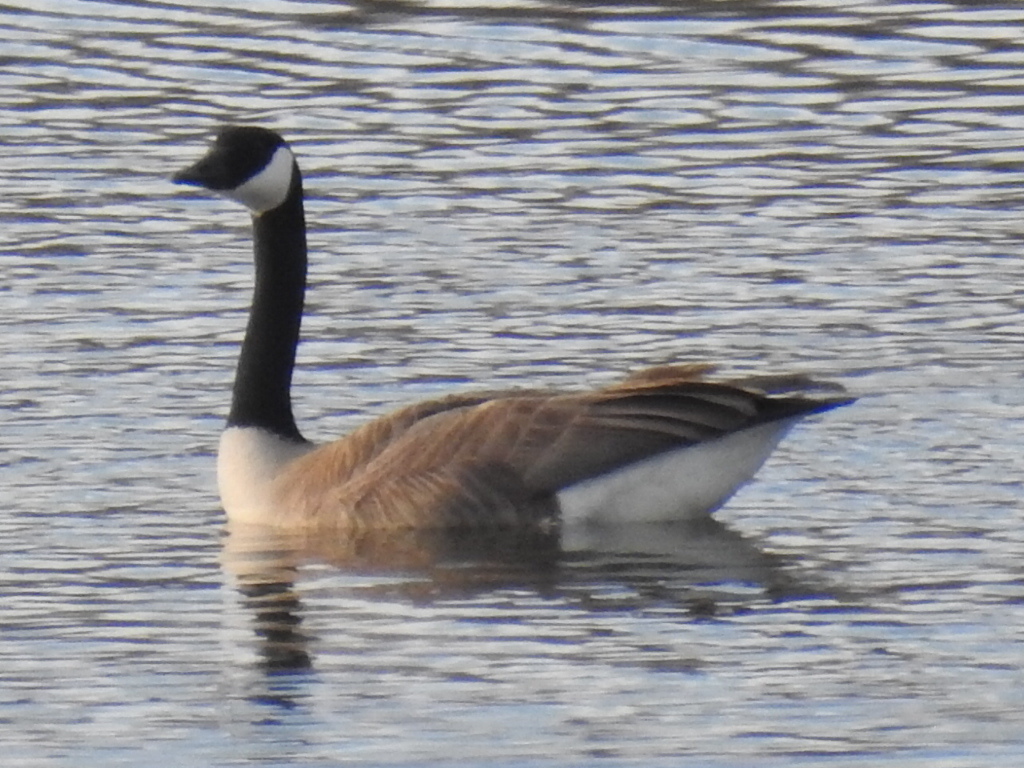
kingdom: Animalia
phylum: Chordata
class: Aves
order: Anseriformes
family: Anatidae
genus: Branta
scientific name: Branta canadensis
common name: Canada goose
